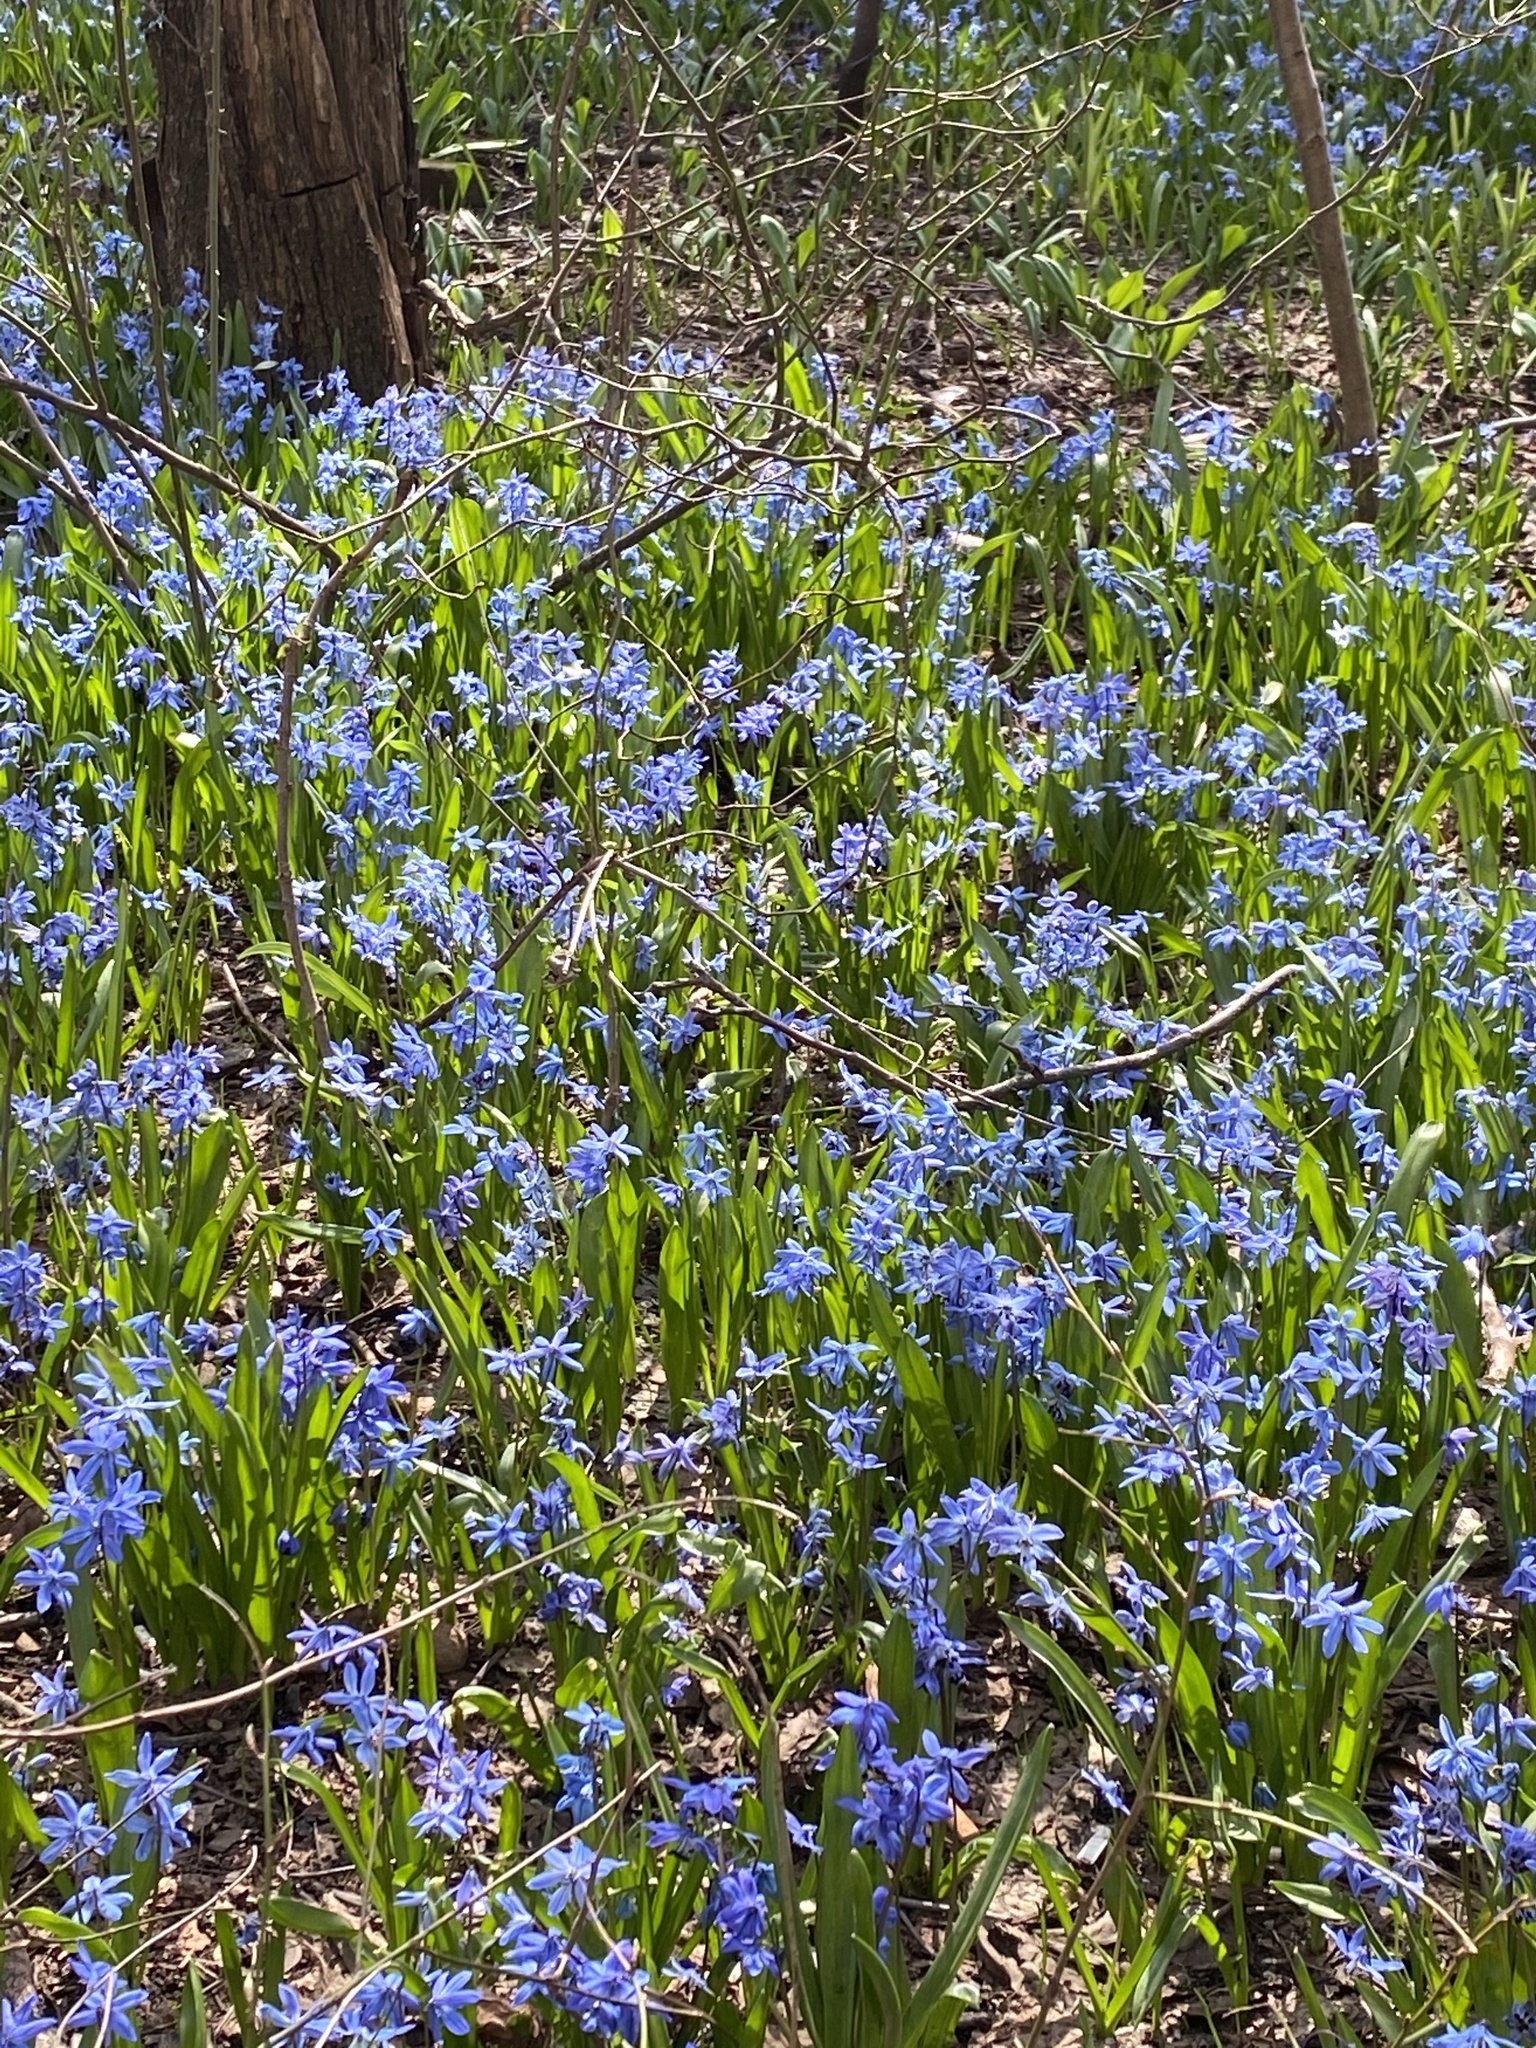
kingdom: Plantae
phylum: Tracheophyta
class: Liliopsida
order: Asparagales
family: Asparagaceae
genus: Scilla
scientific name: Scilla siberica
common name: Siberian squill
